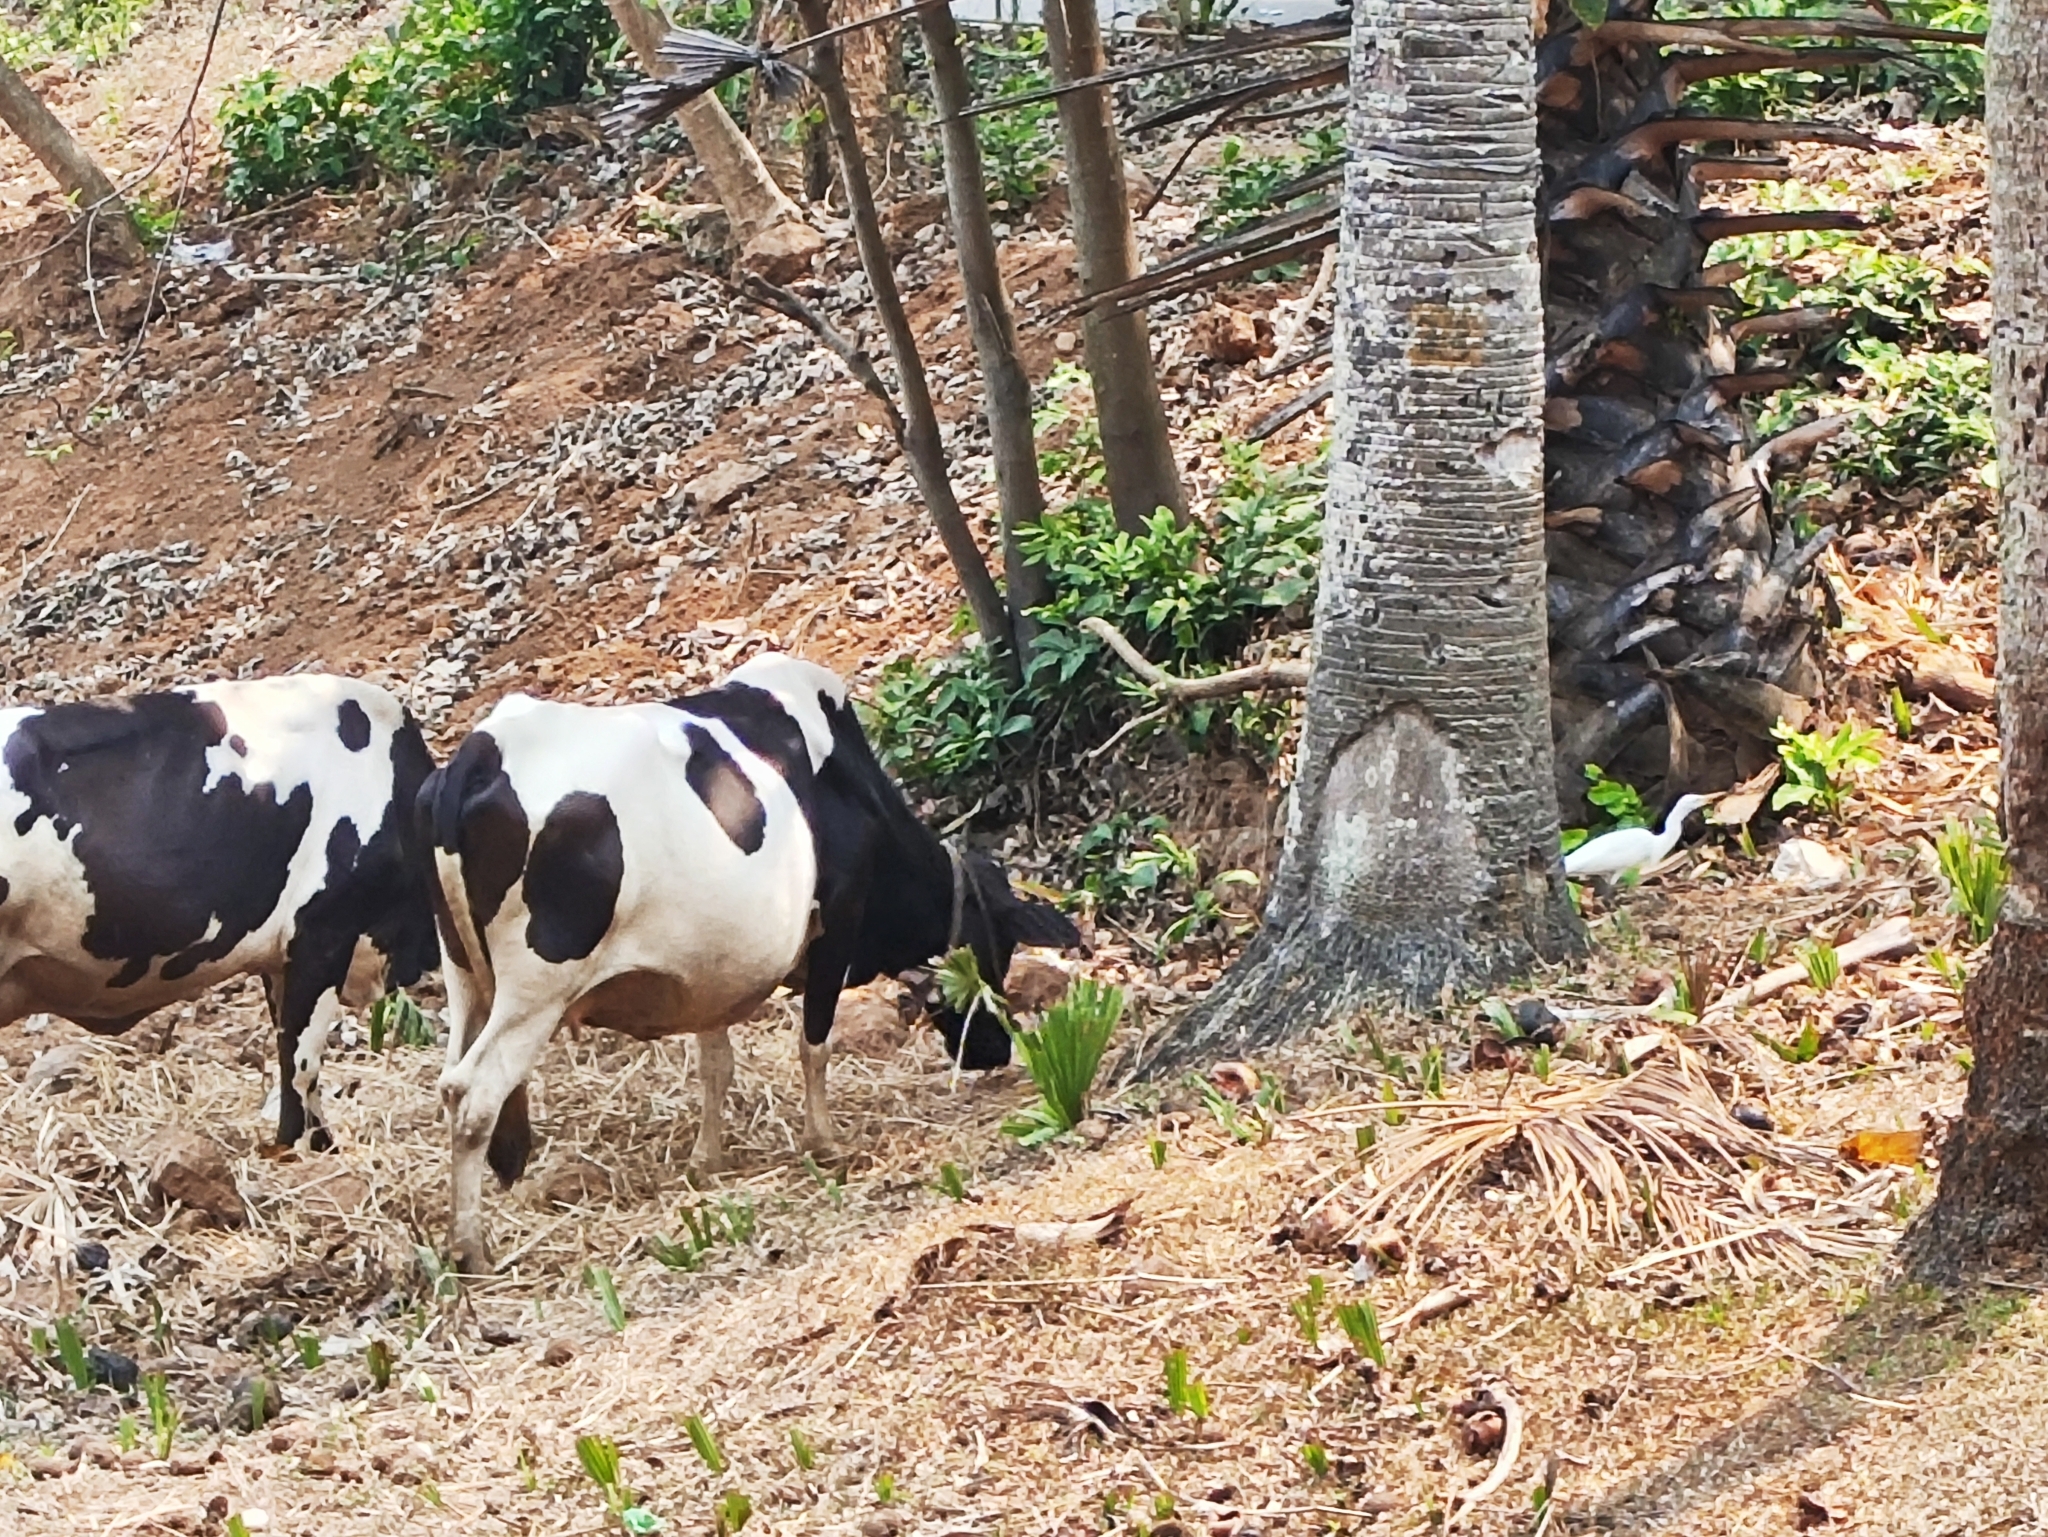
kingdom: Animalia
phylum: Chordata
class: Mammalia
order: Artiodactyla
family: Bovidae
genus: Bos
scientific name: Bos taurus
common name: Domesticated cattle
